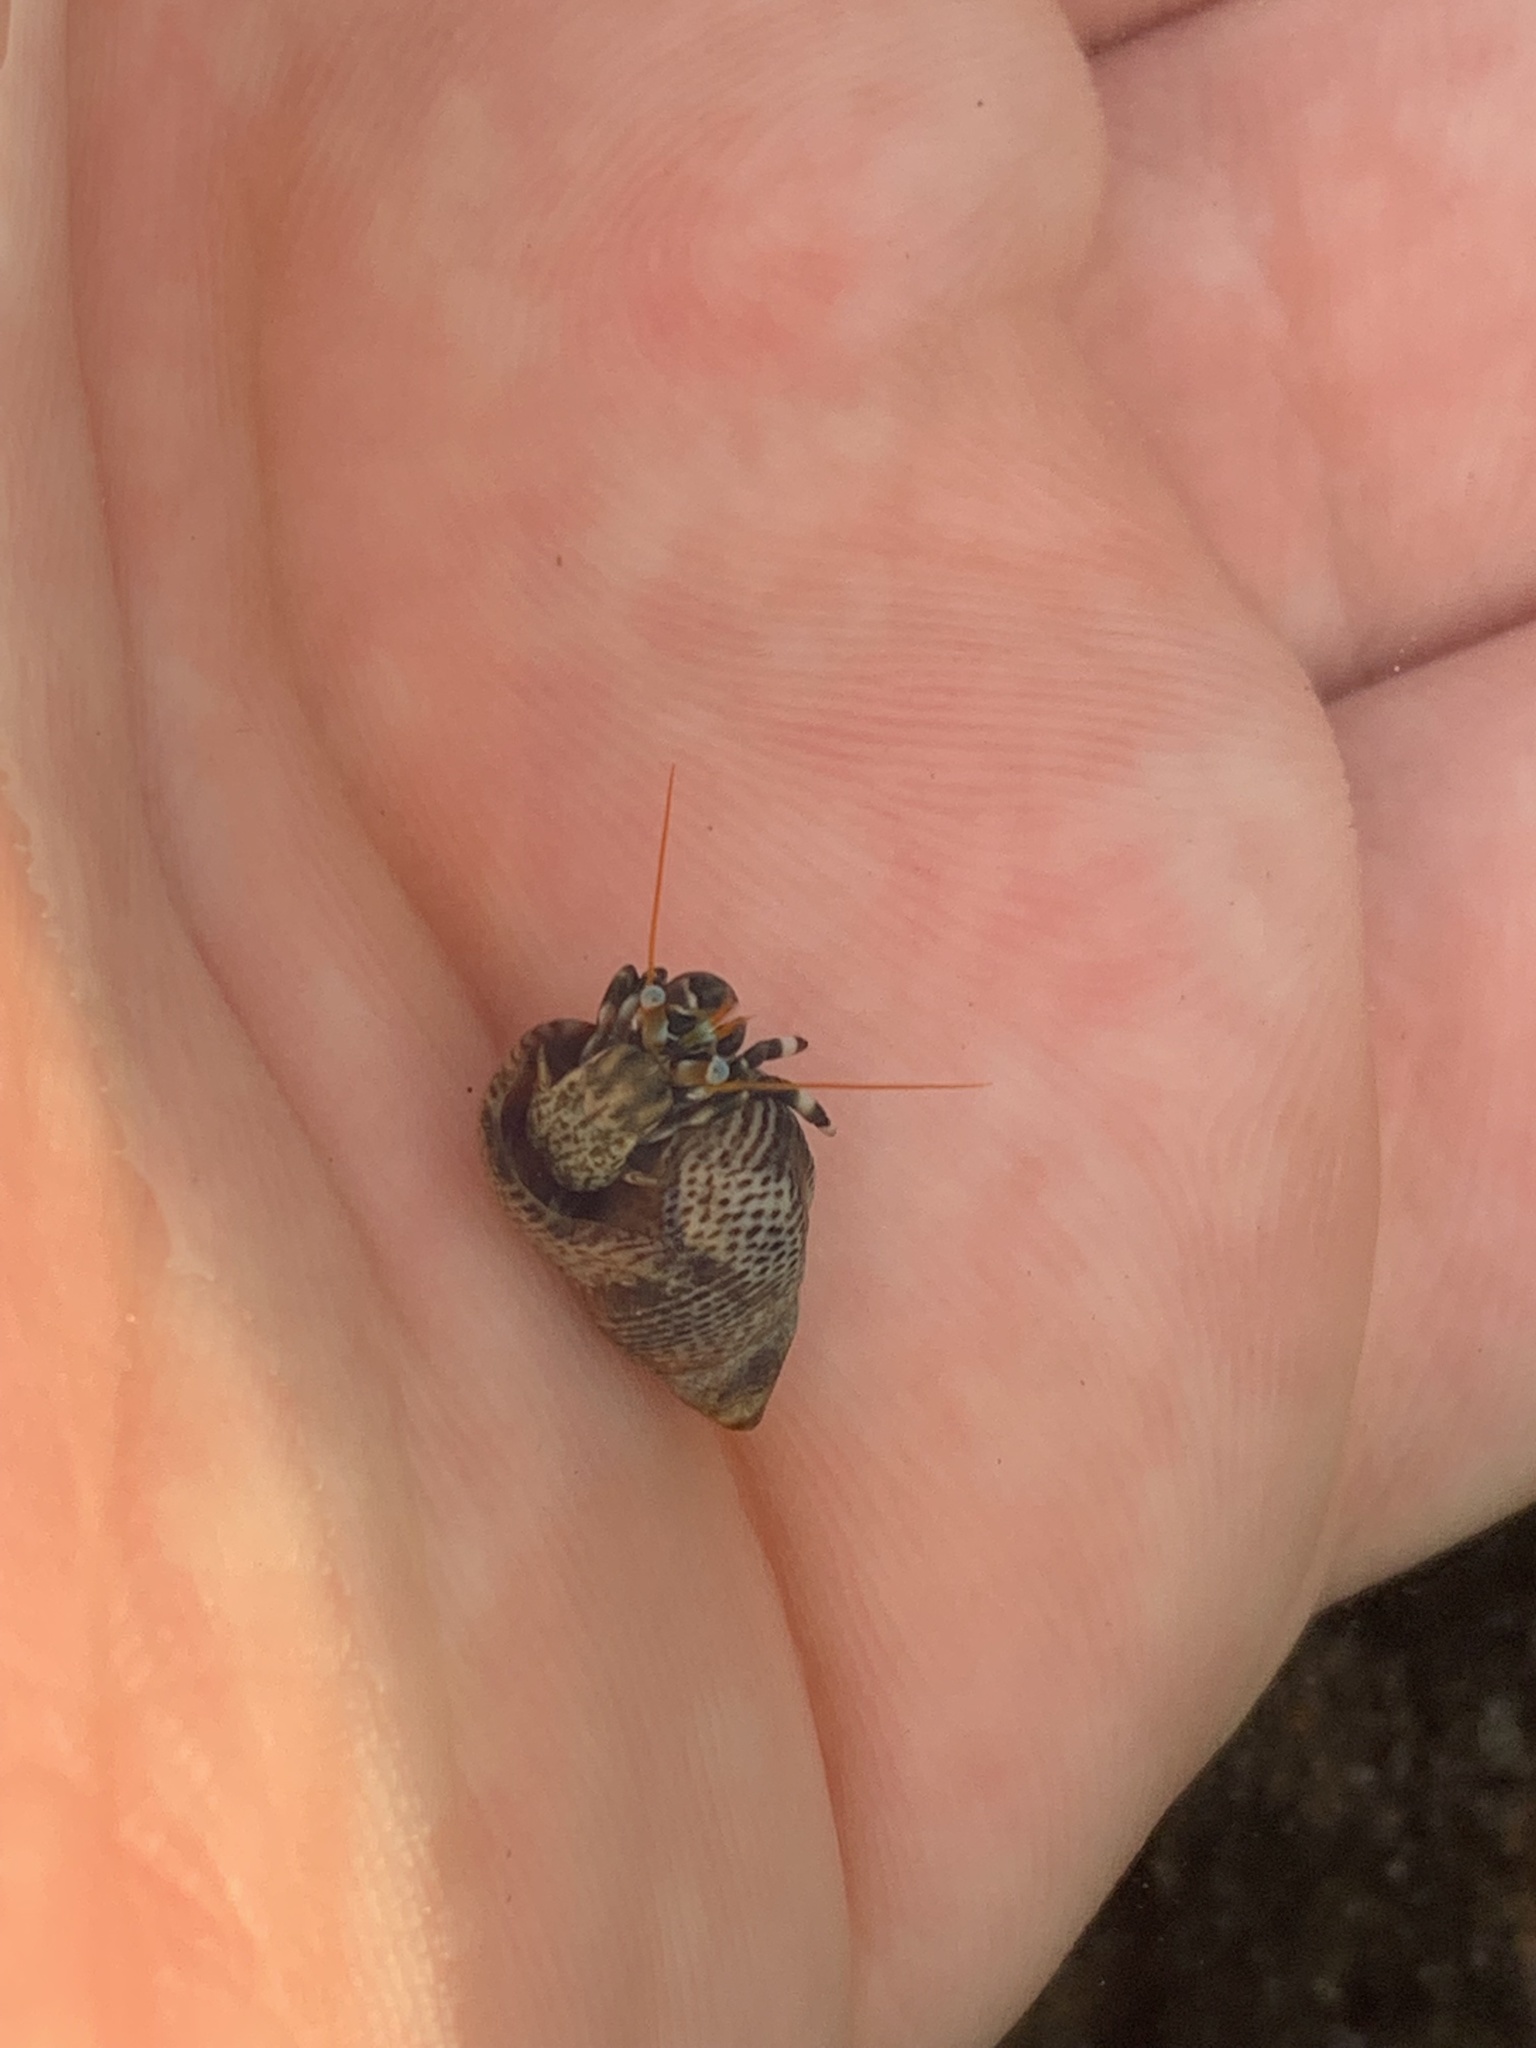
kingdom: Animalia
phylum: Arthropoda
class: Malacostraca
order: Decapoda
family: Diogenidae
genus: Calcinus
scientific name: Calcinus seurati
